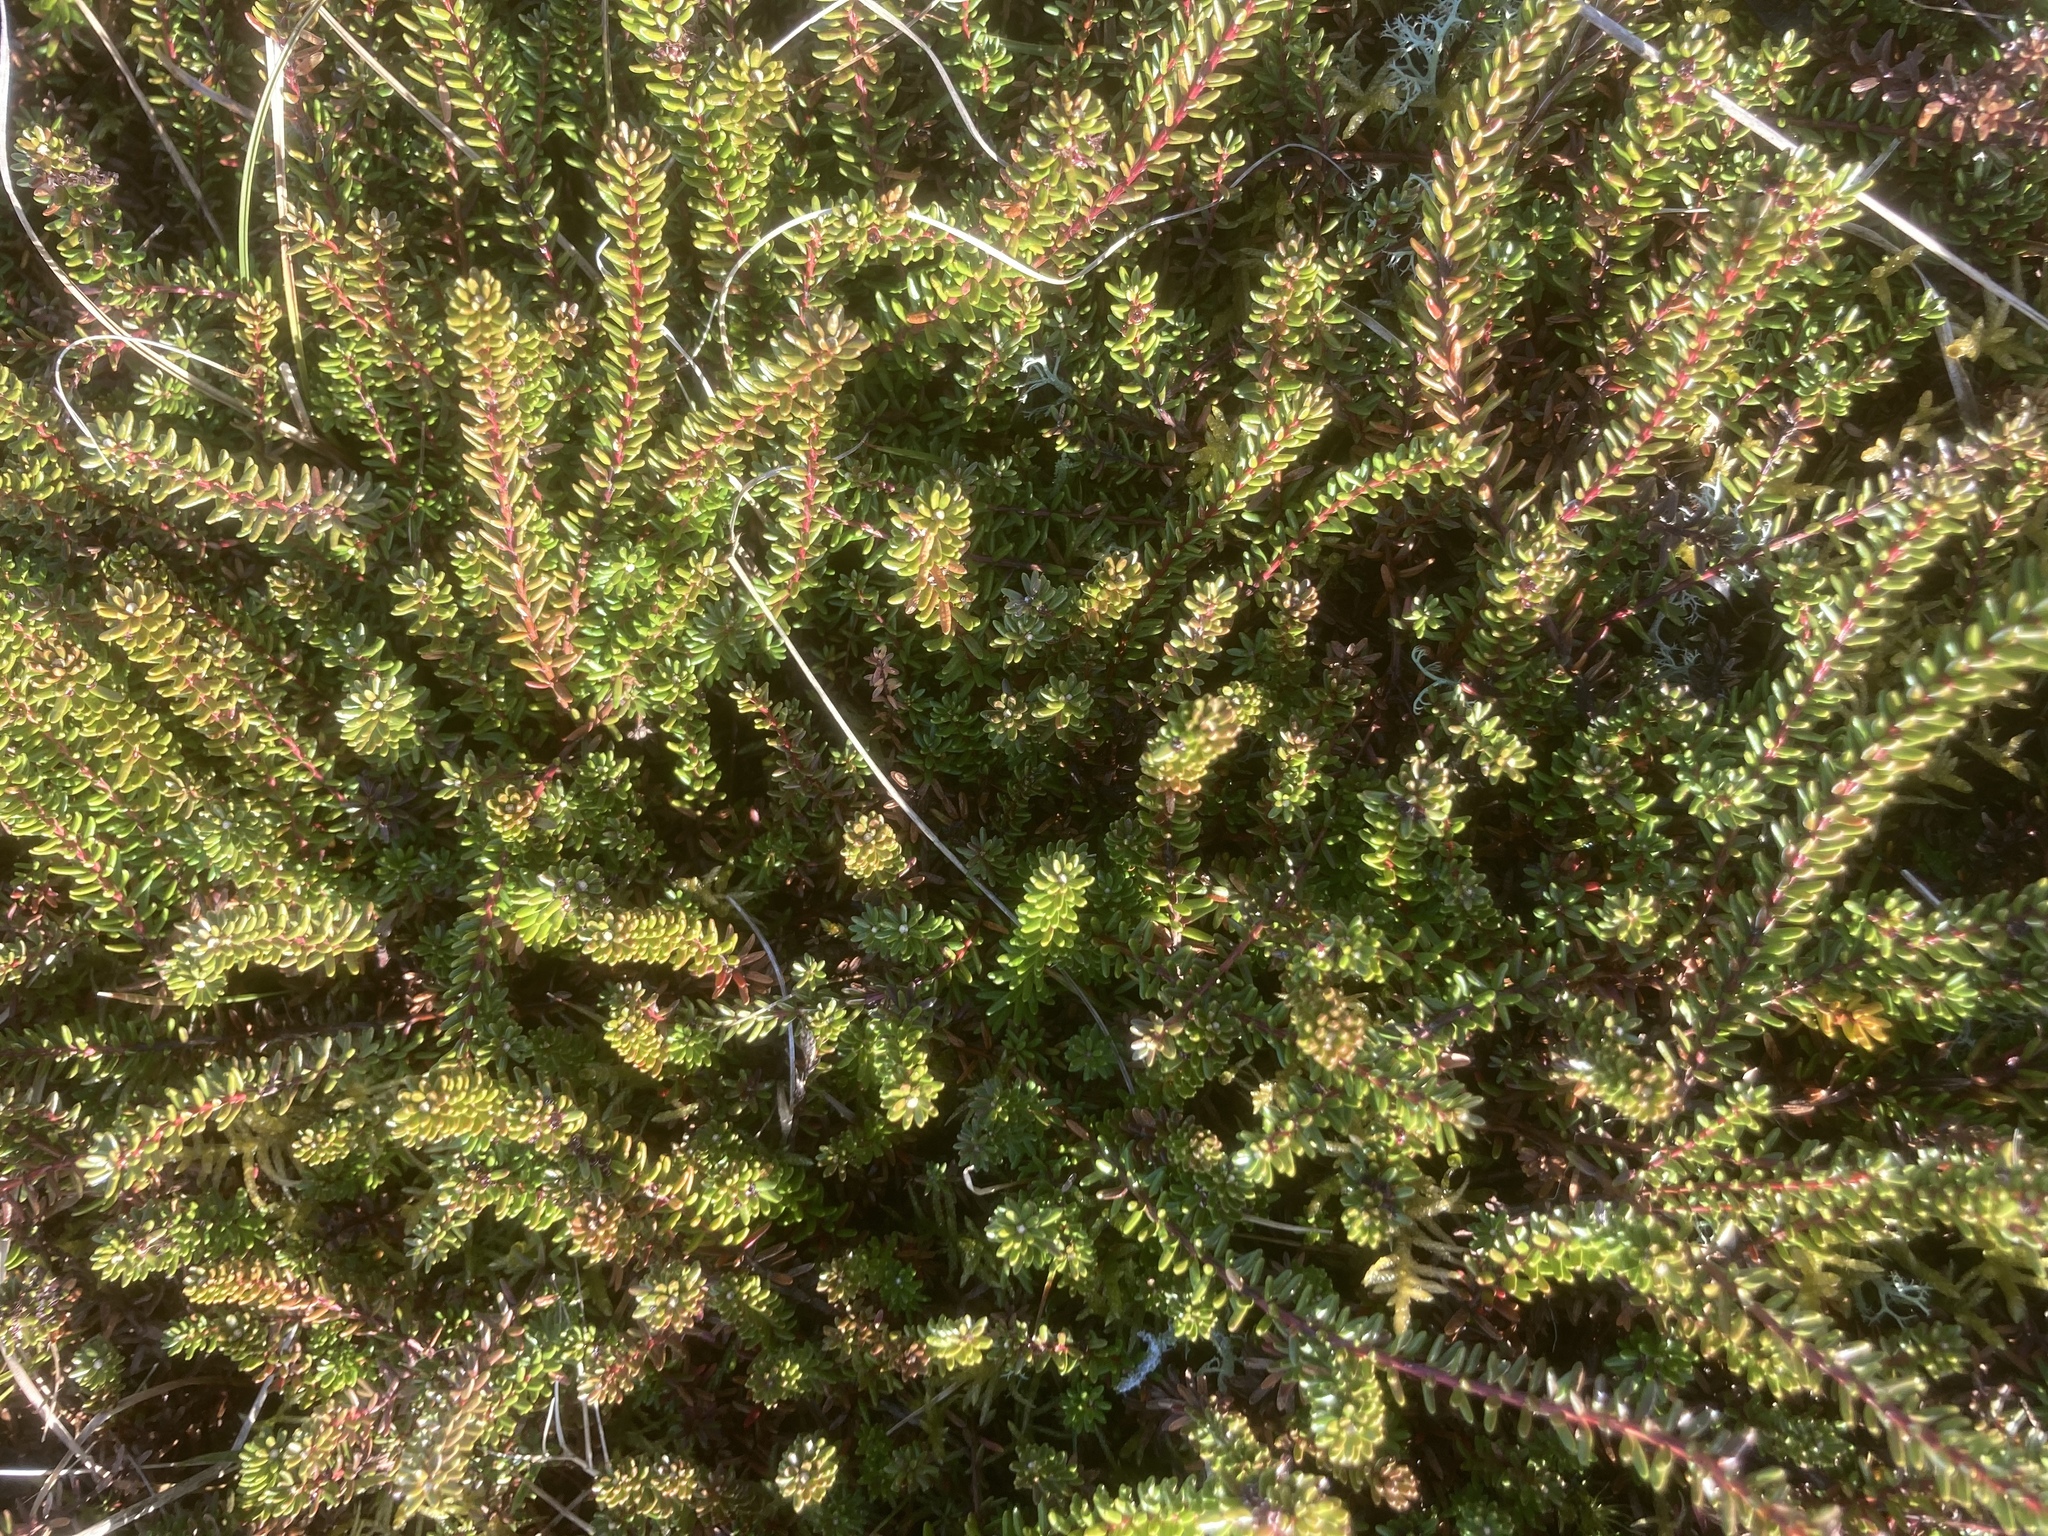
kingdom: Plantae
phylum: Tracheophyta
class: Magnoliopsida
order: Ericales
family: Ericaceae
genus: Empetrum
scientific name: Empetrum nigrum
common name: Black crowberry
